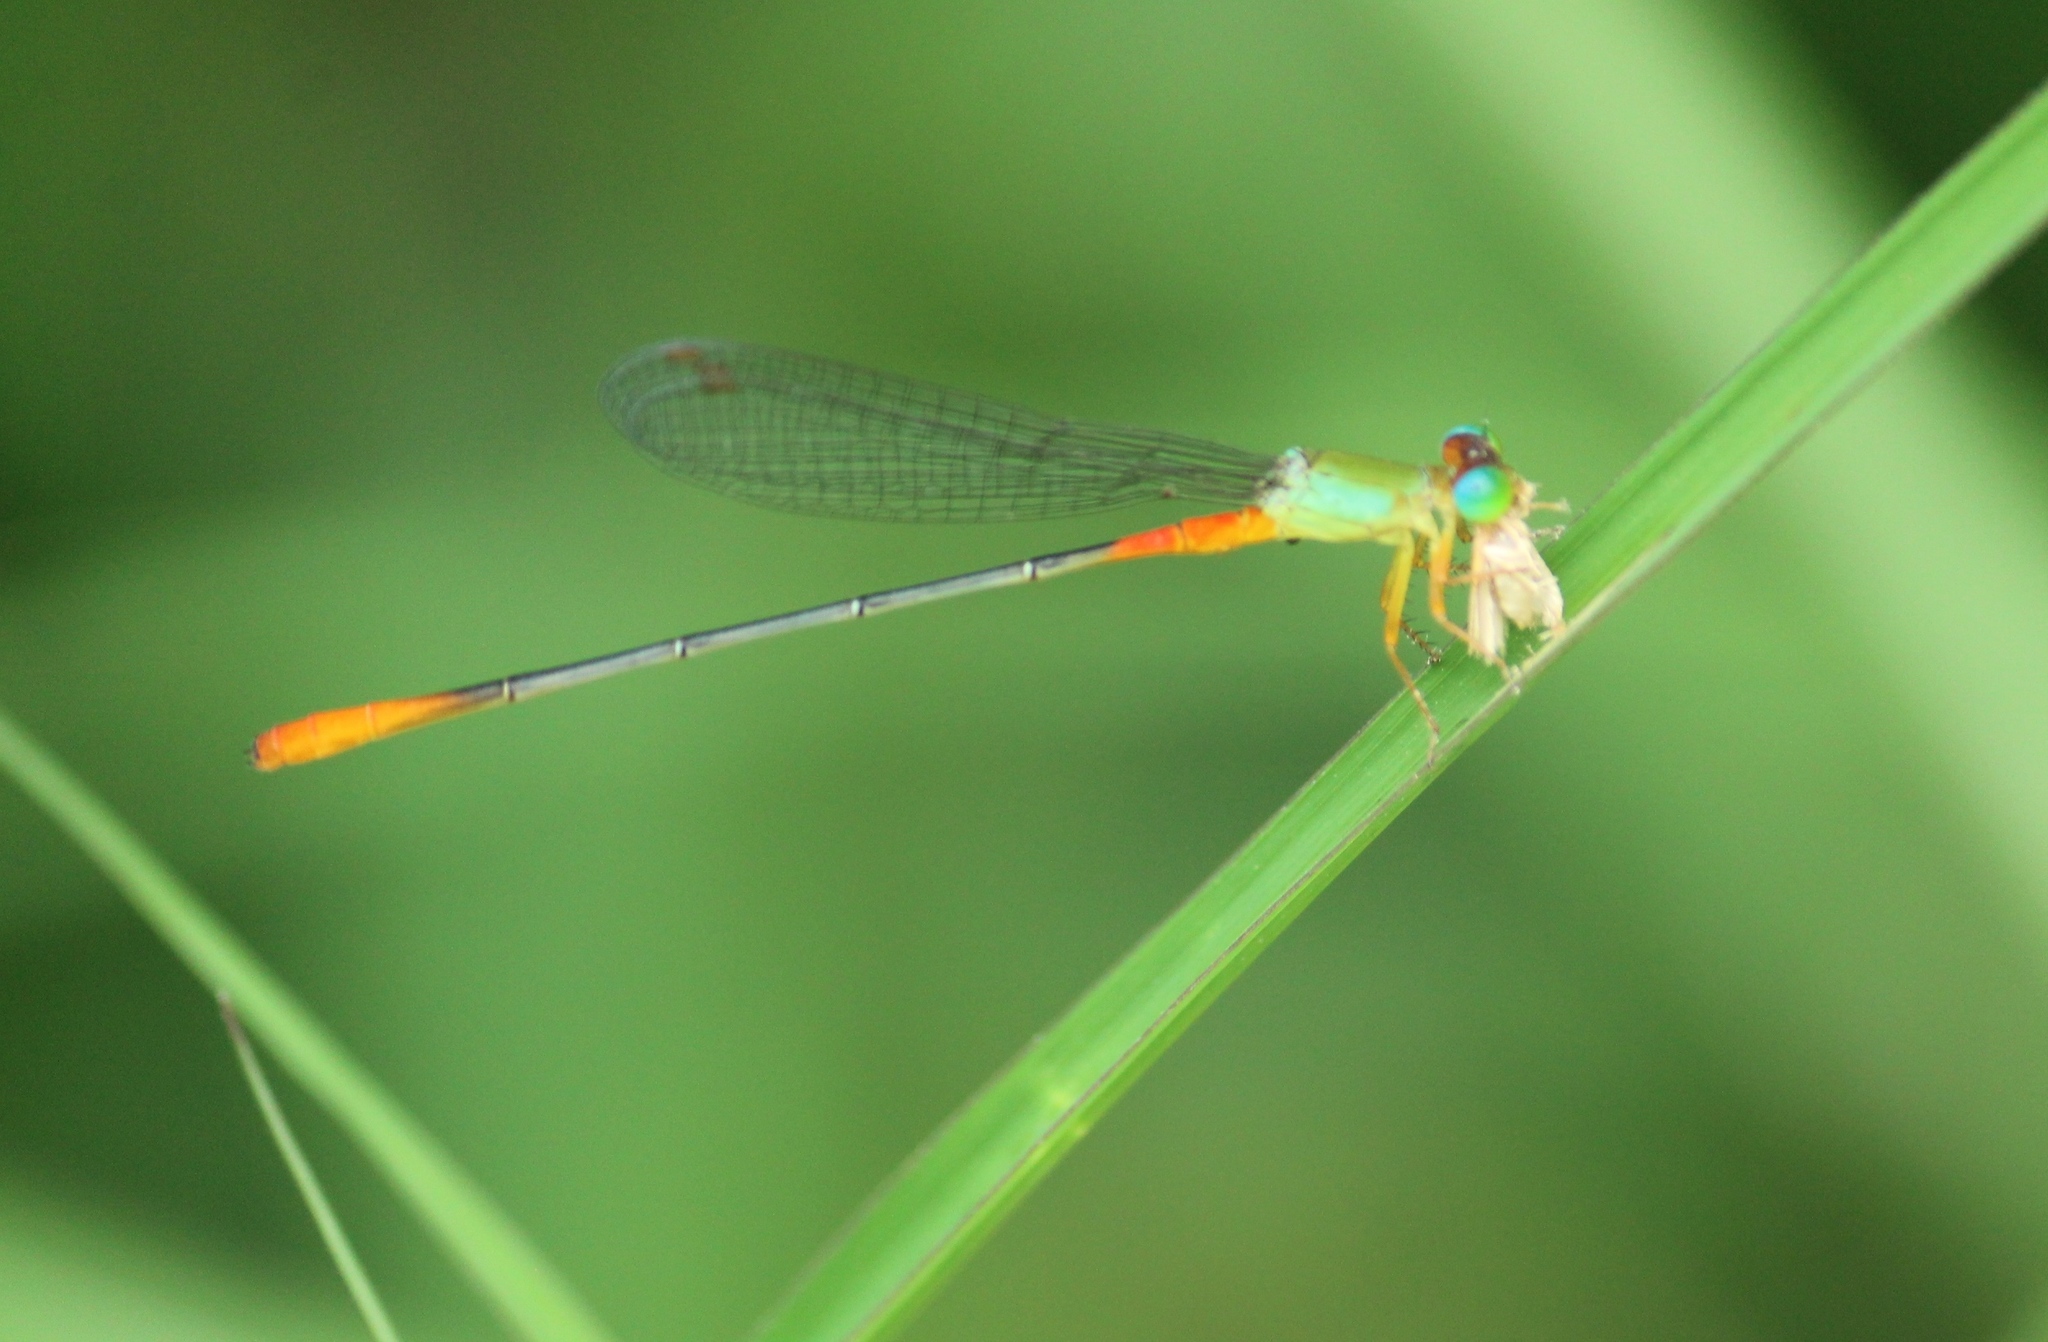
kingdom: Animalia
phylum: Arthropoda
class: Insecta
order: Odonata
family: Coenagrionidae
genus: Ceriagrion
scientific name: Ceriagrion cerinorubellum
